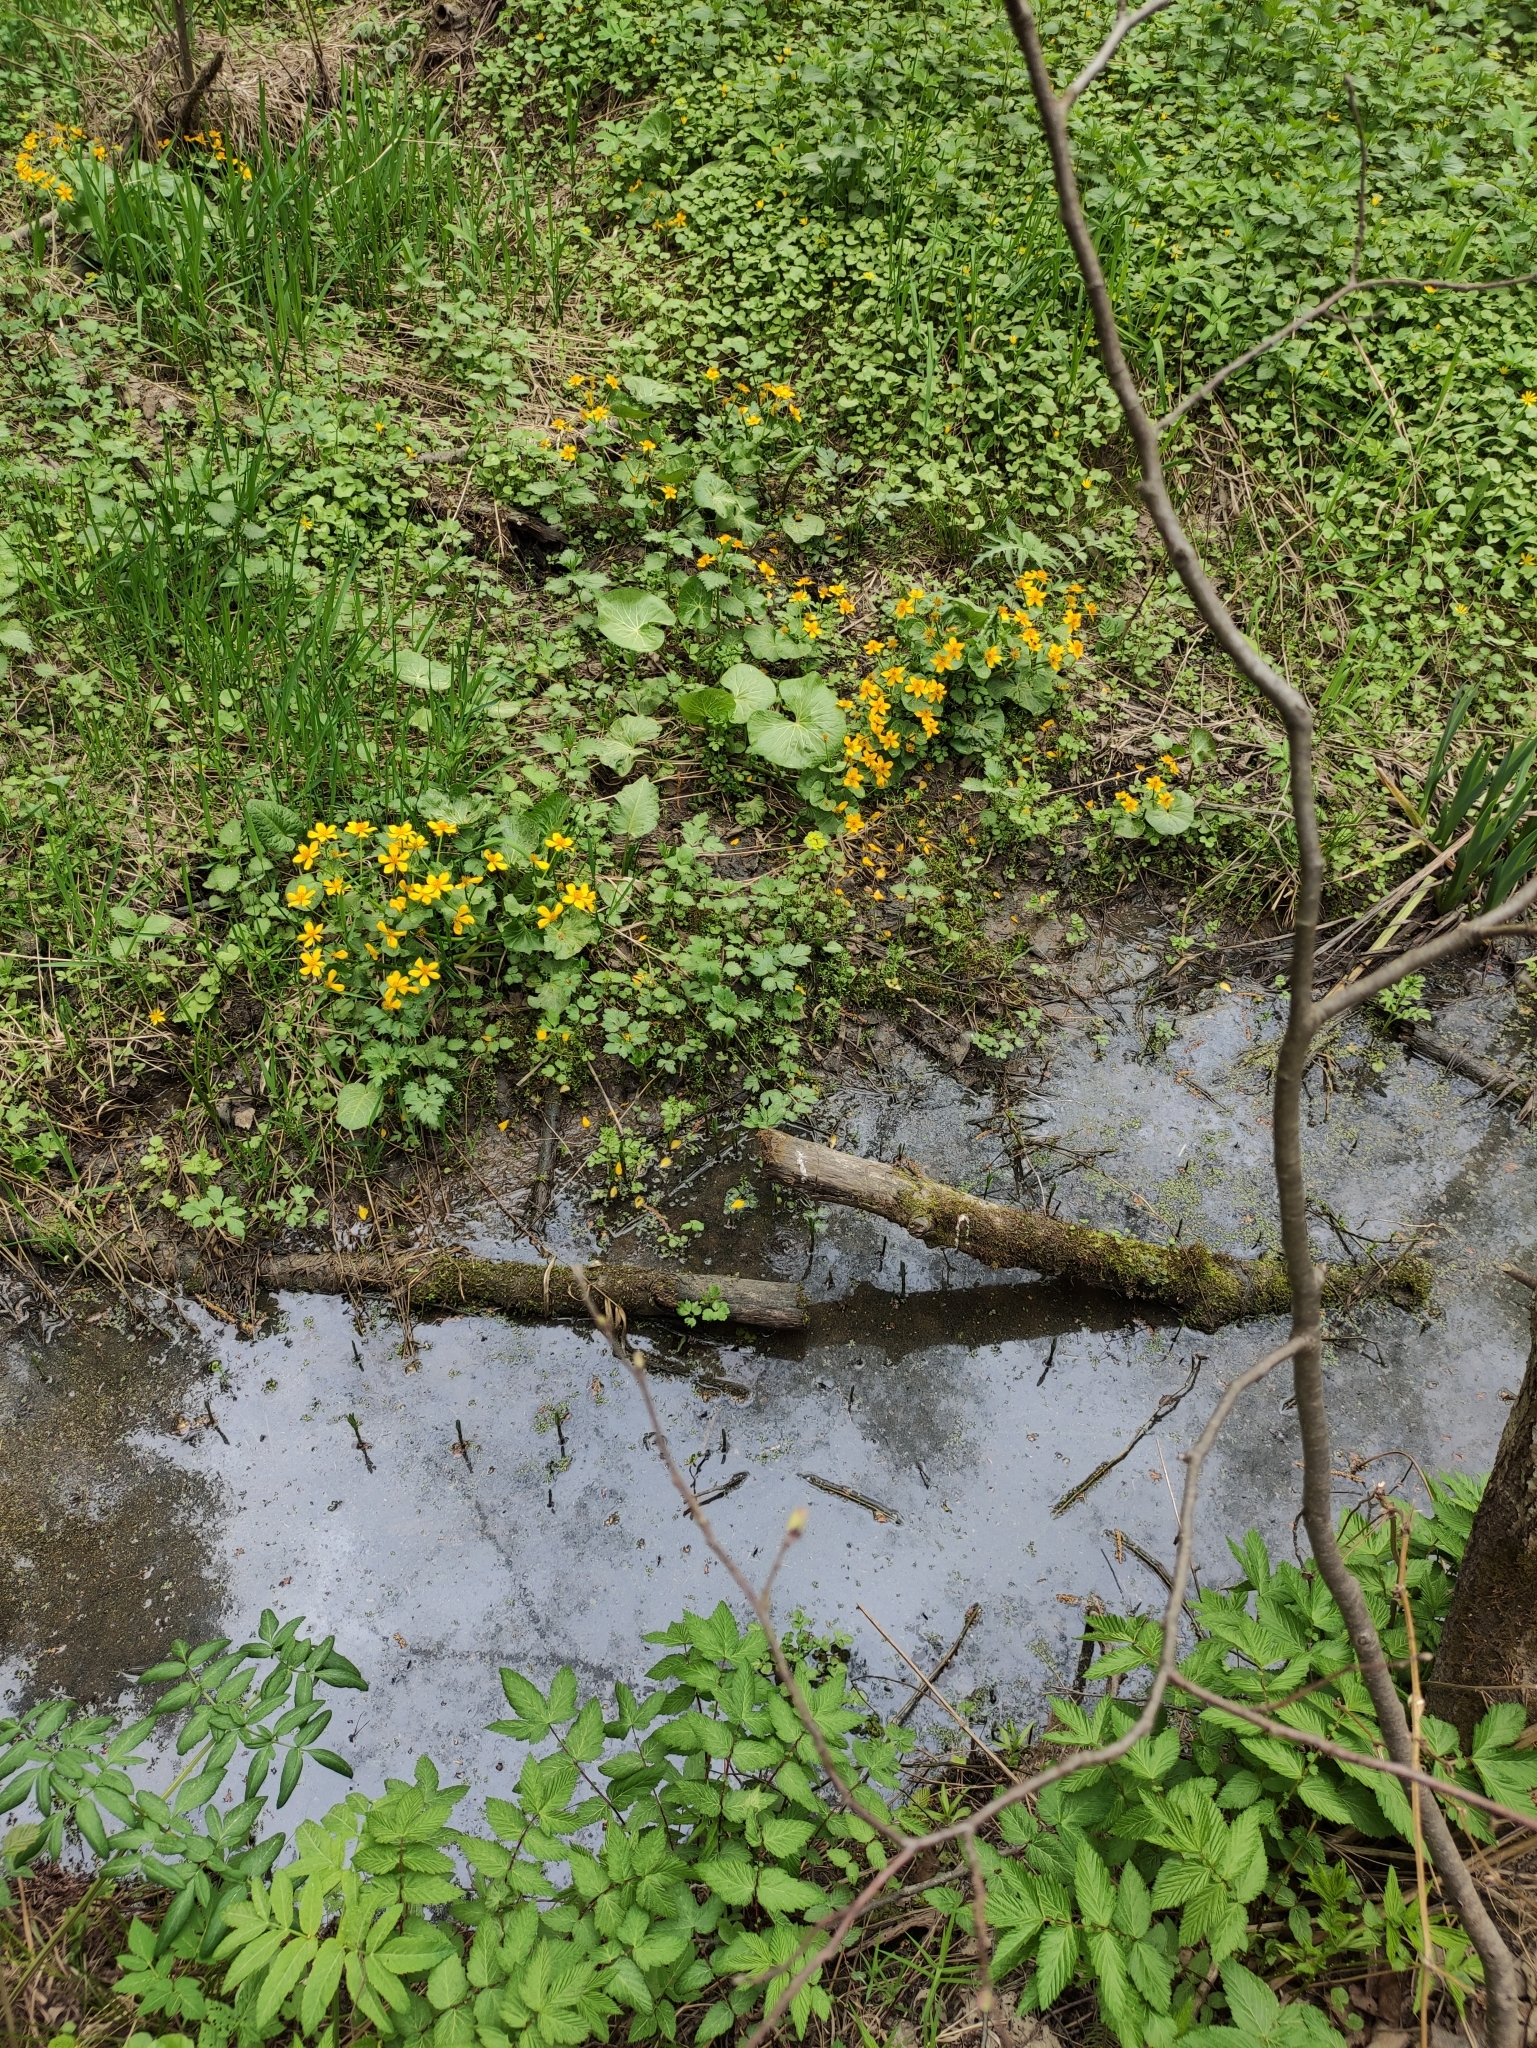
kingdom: Plantae
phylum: Tracheophyta
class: Magnoliopsida
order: Ranunculales
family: Ranunculaceae
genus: Caltha
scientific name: Caltha palustris
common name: Marsh marigold
